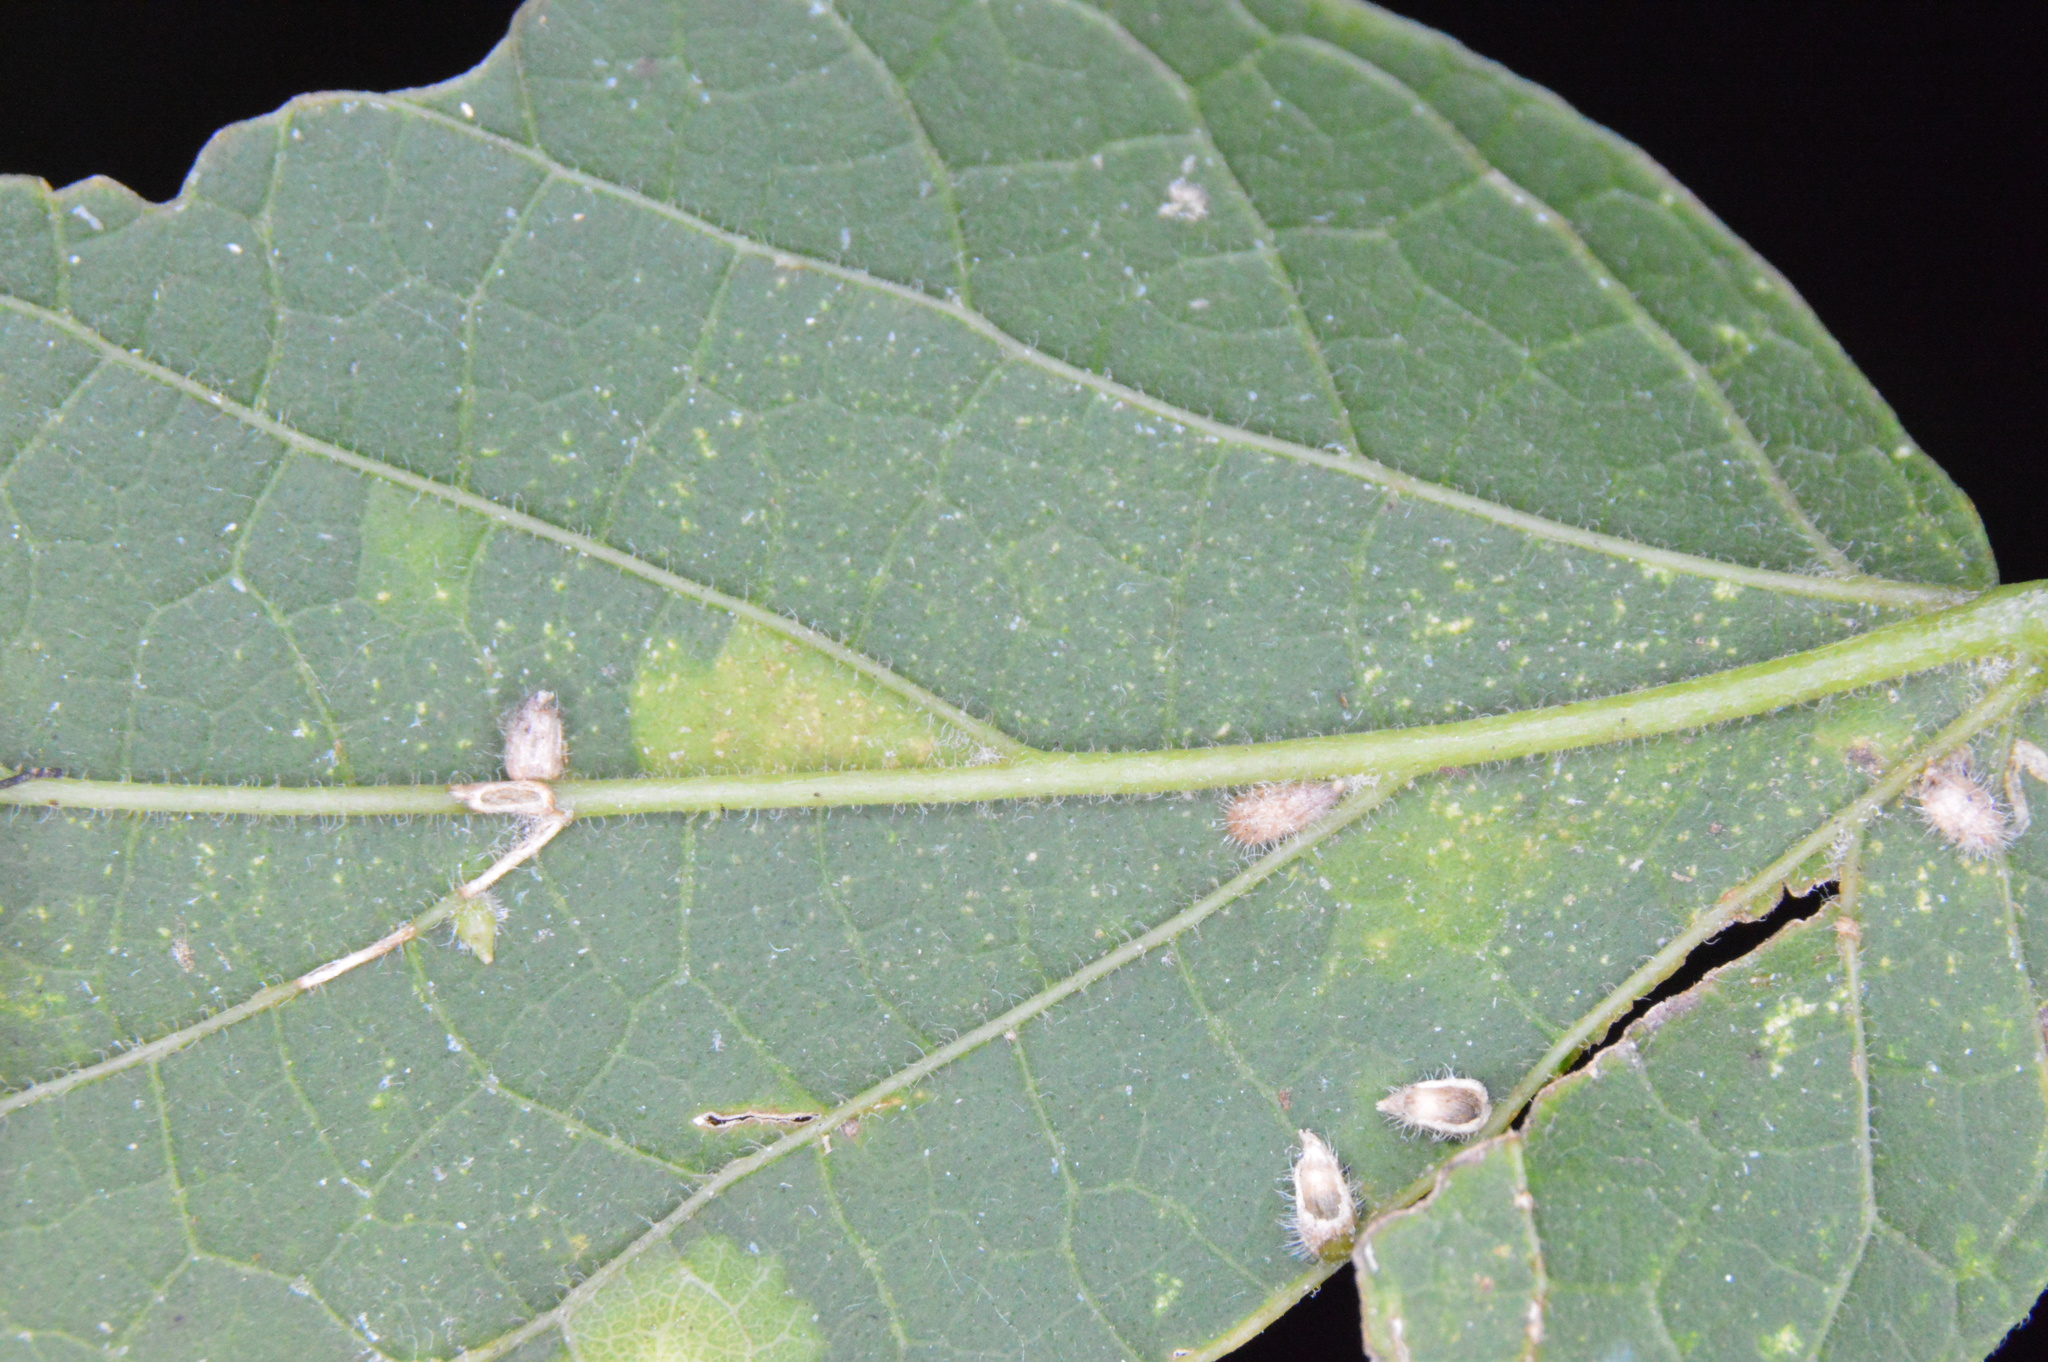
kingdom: Animalia
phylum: Arthropoda
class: Insecta
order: Diptera
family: Cecidomyiidae
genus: Celticecis
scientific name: Celticecis supina
